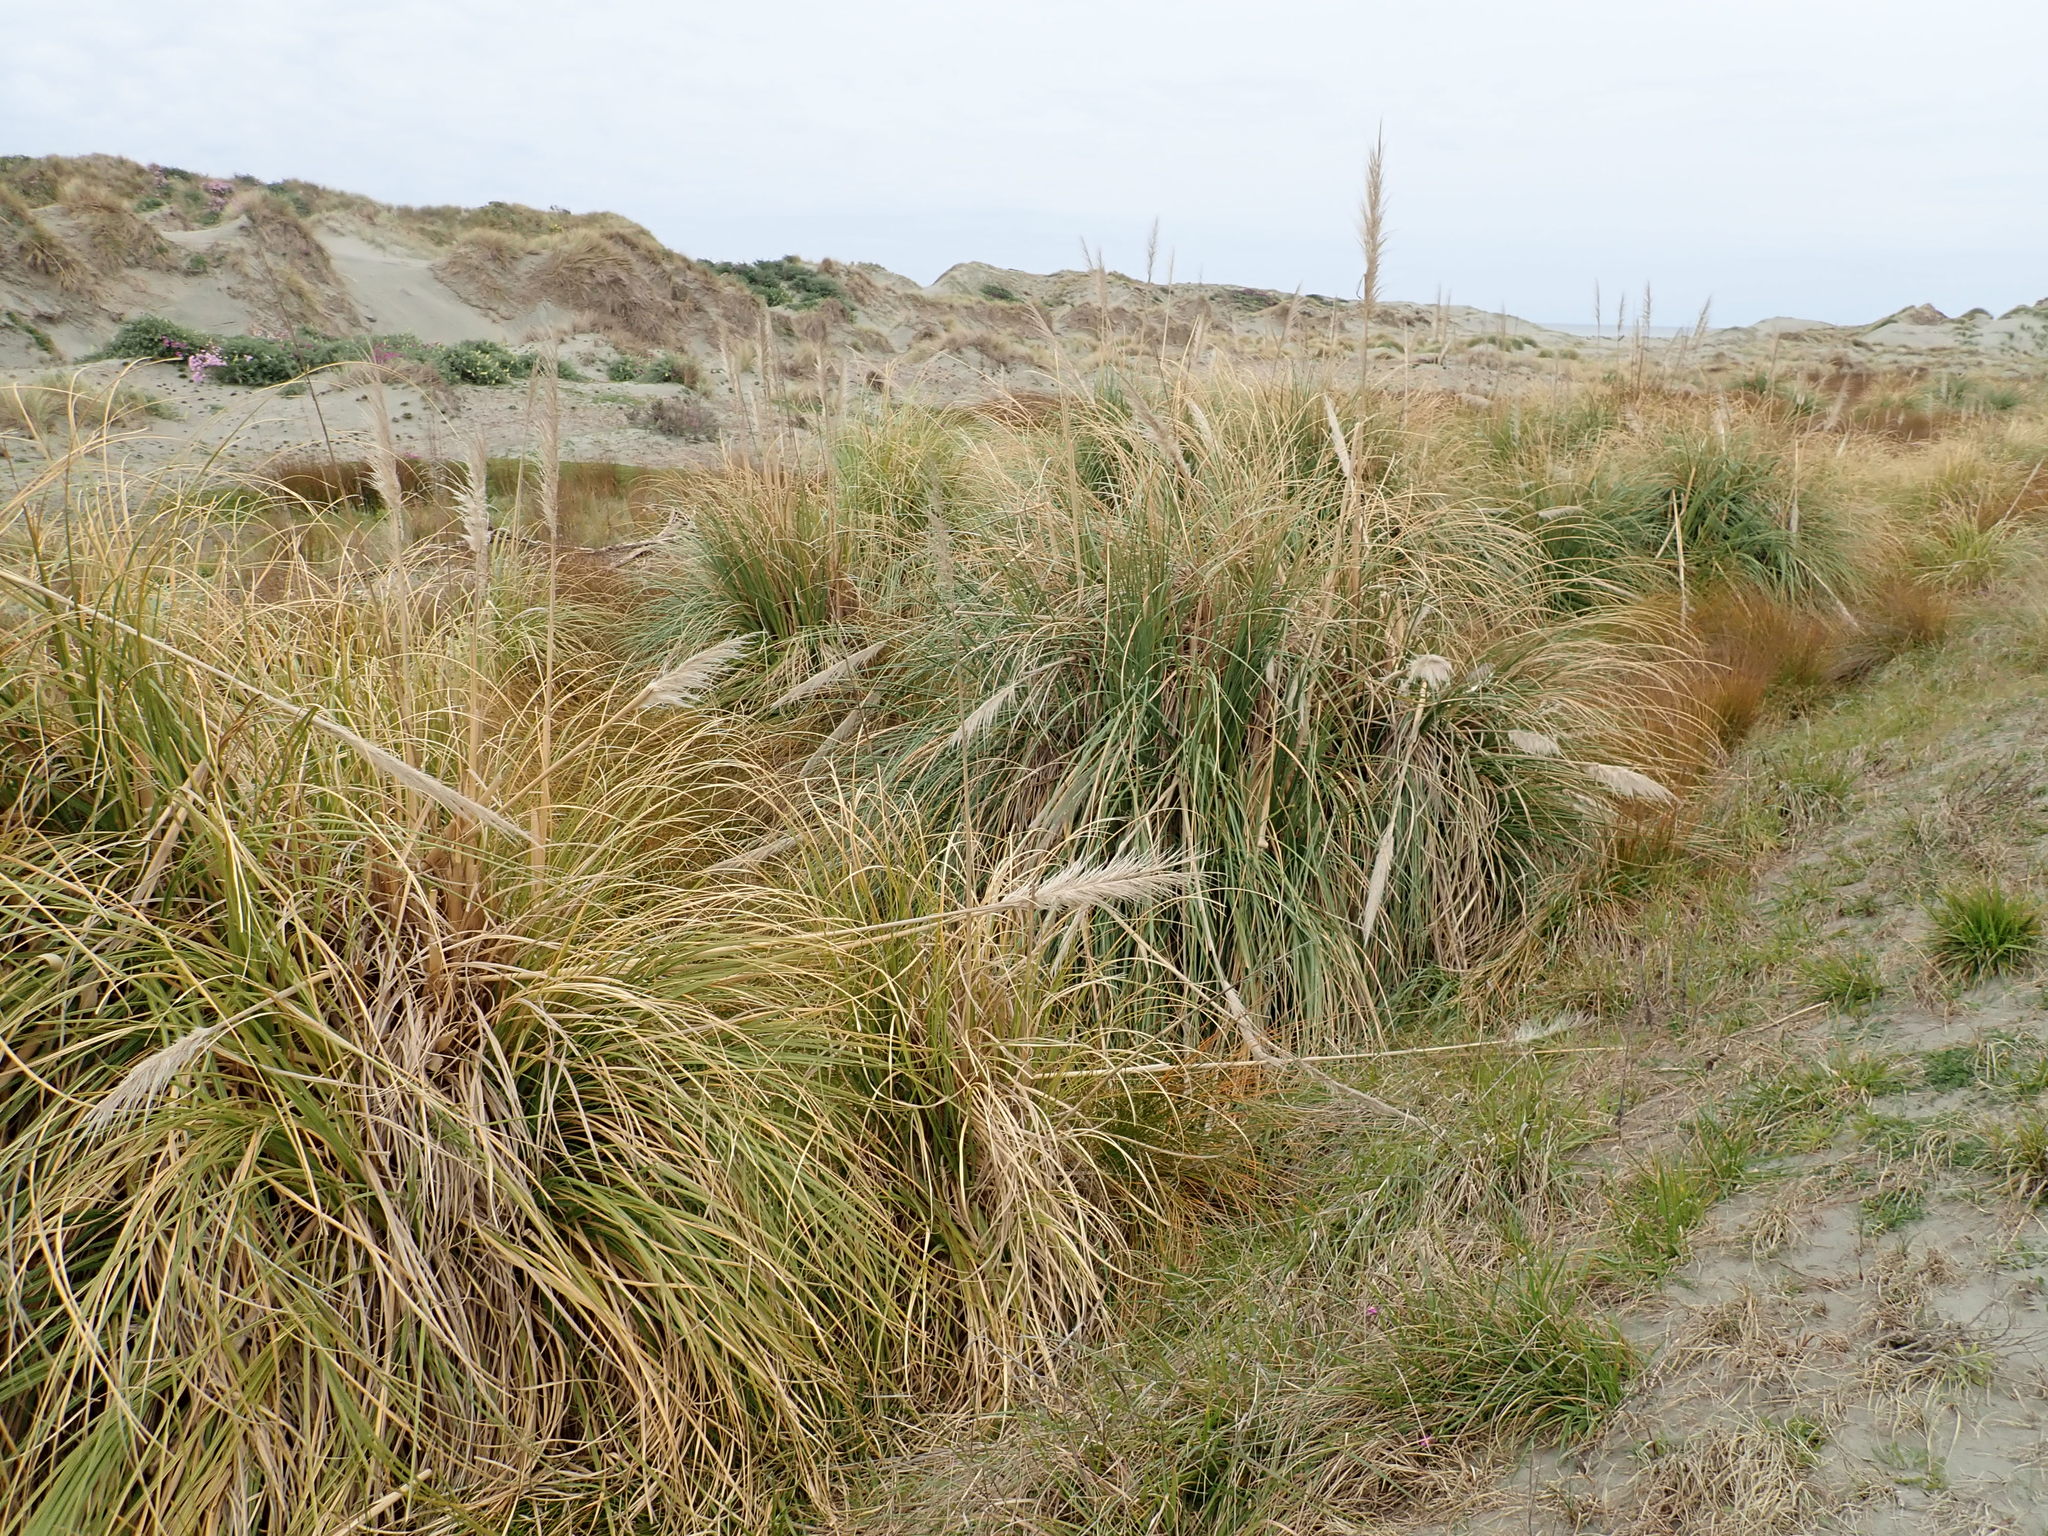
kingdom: Plantae
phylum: Tracheophyta
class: Liliopsida
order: Poales
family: Poaceae
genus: Cortaderia
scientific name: Cortaderia selloana
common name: Uruguayan pampas grass
